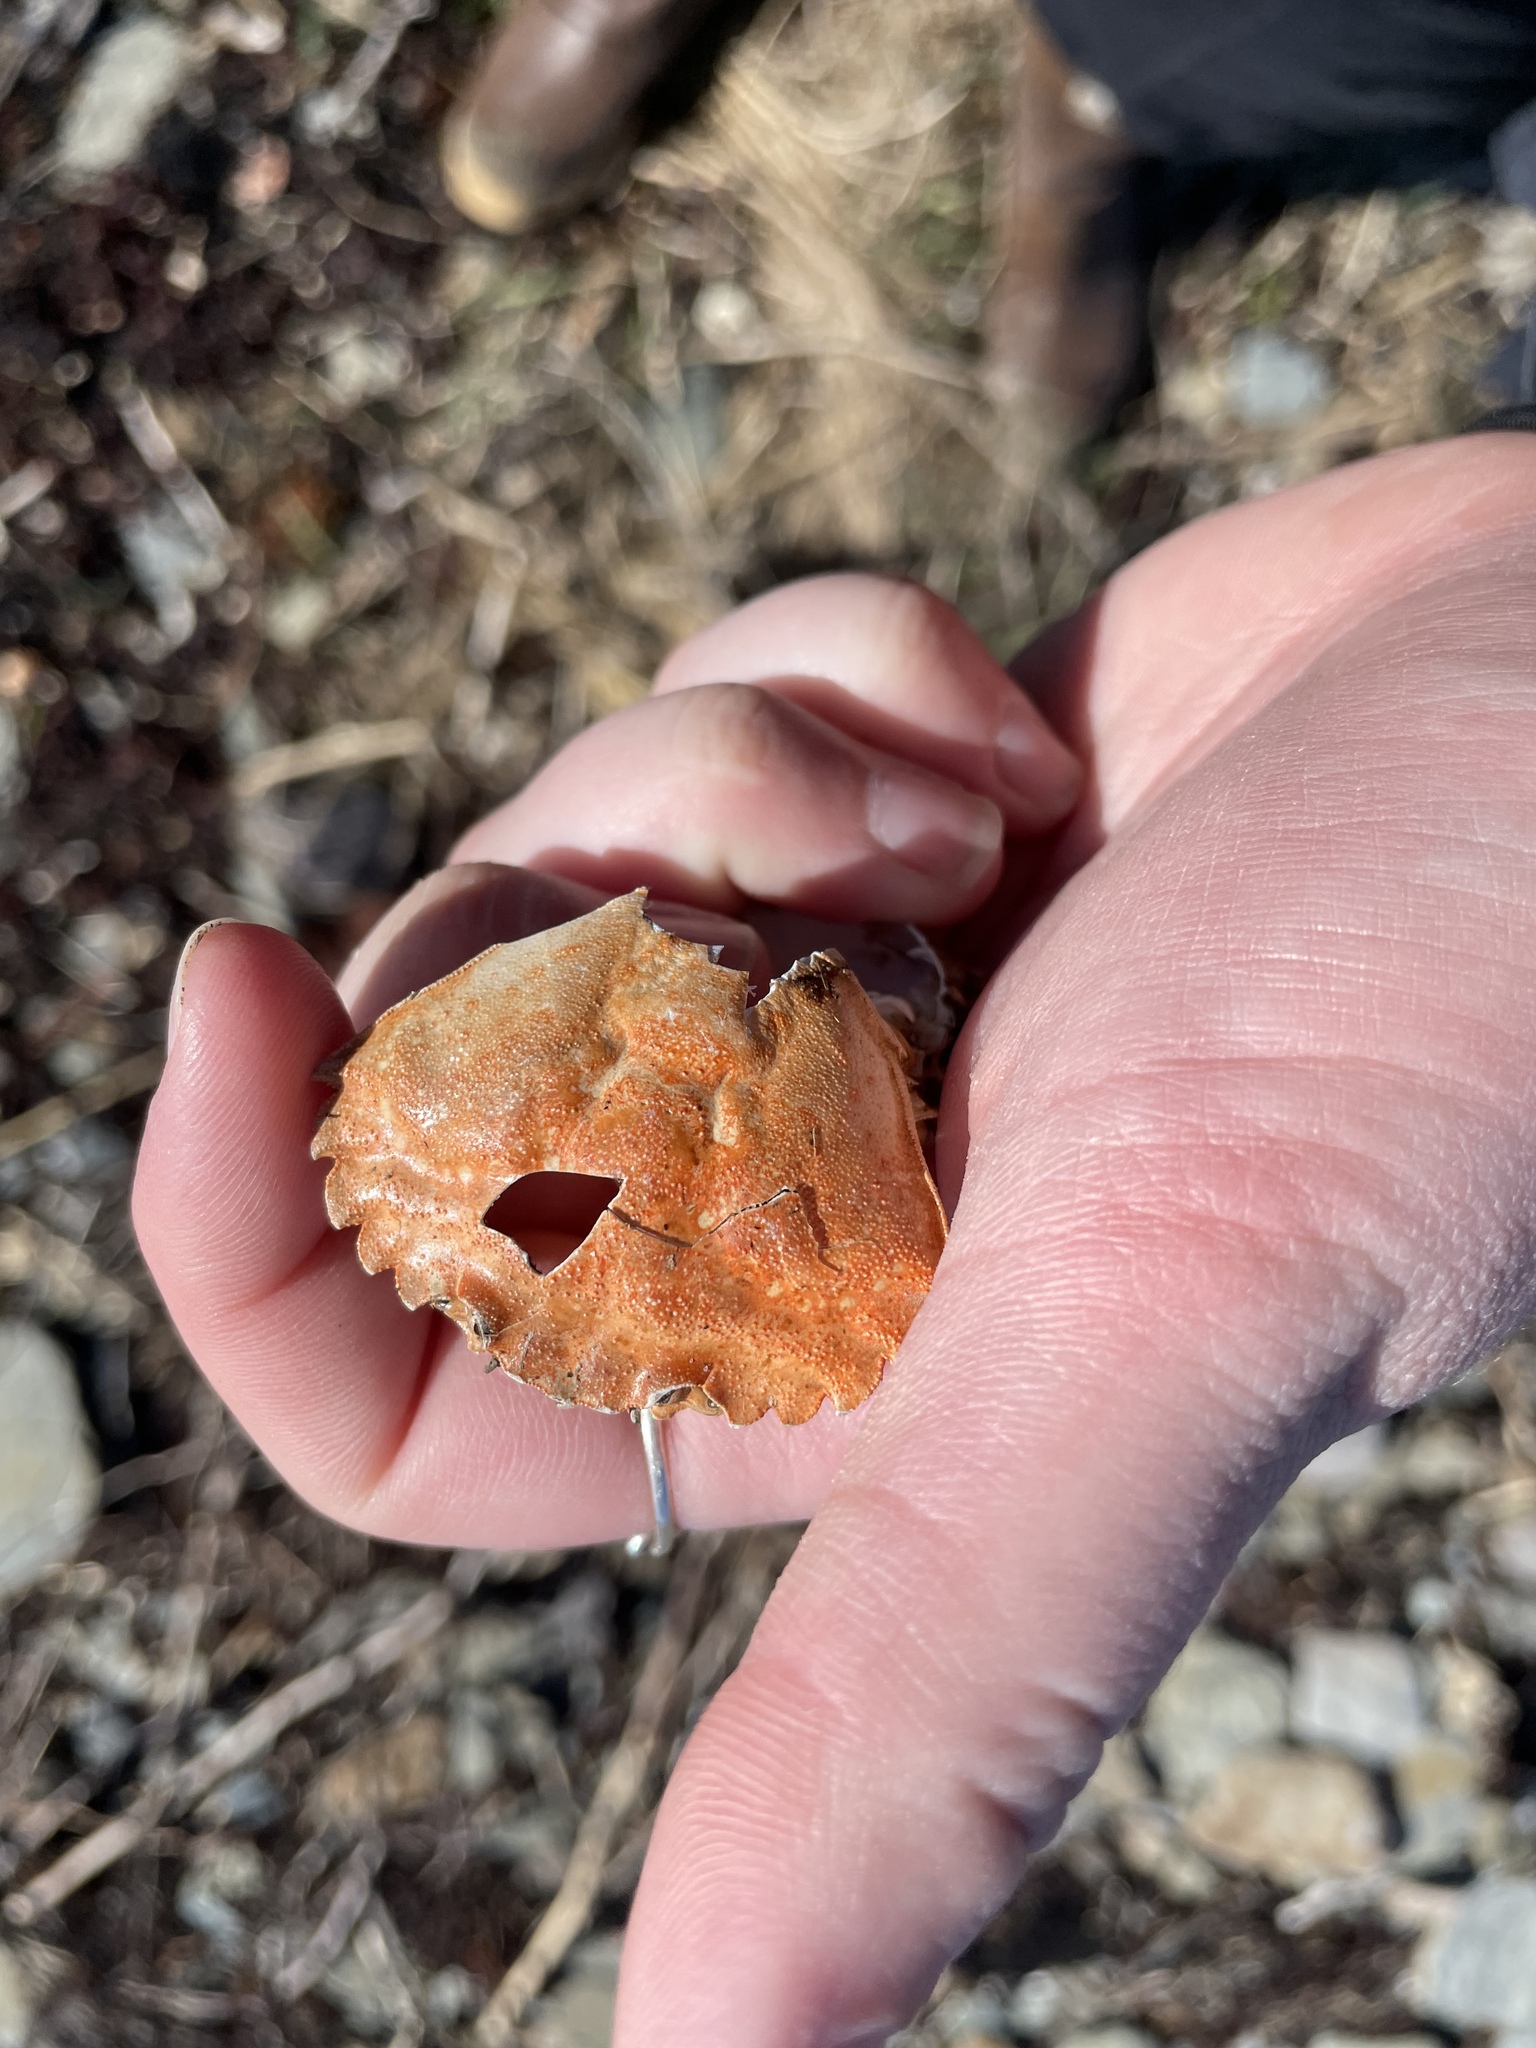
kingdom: Animalia
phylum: Arthropoda
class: Malacostraca
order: Decapoda
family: Carcinidae
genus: Carcinus
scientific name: Carcinus maenas
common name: European green crab
